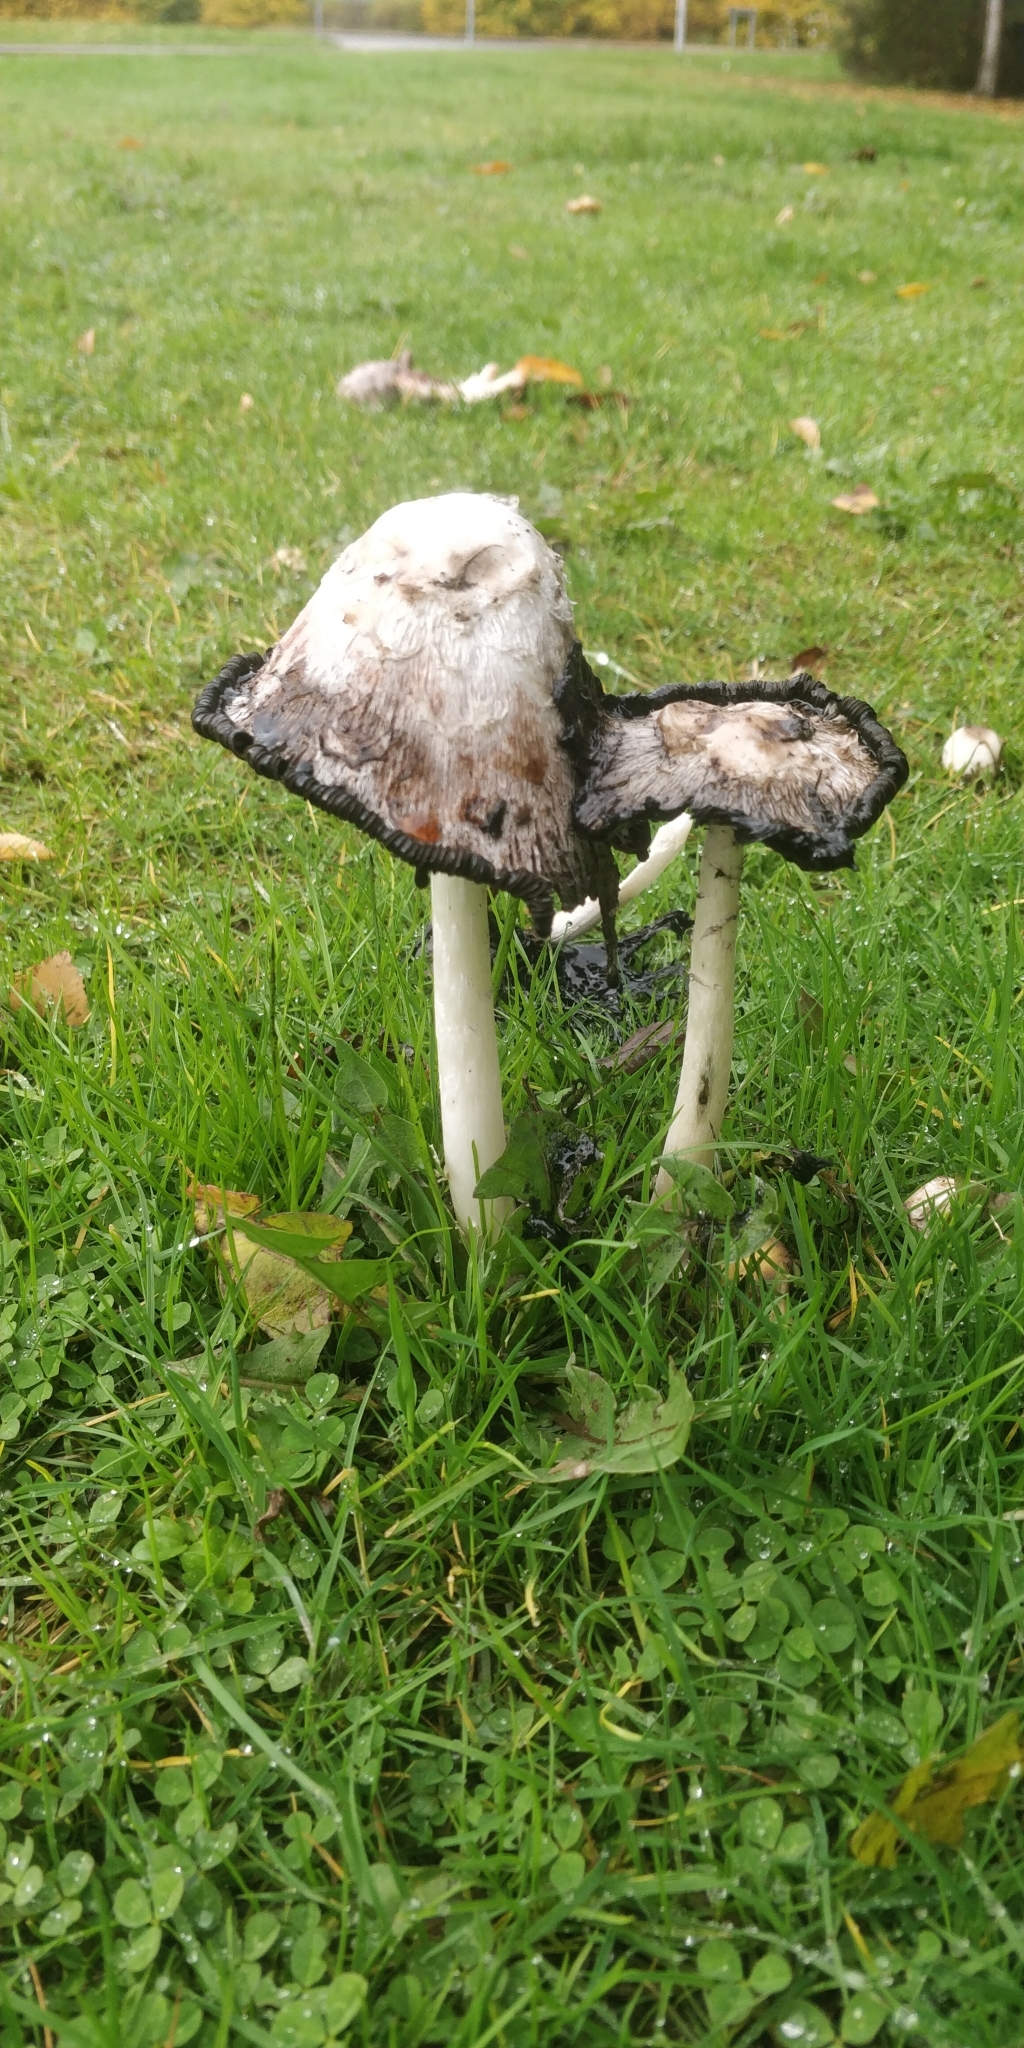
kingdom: Fungi
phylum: Basidiomycota
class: Agaricomycetes
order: Agaricales
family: Agaricaceae
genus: Coprinus
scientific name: Coprinus comatus
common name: Lawyer's wig
